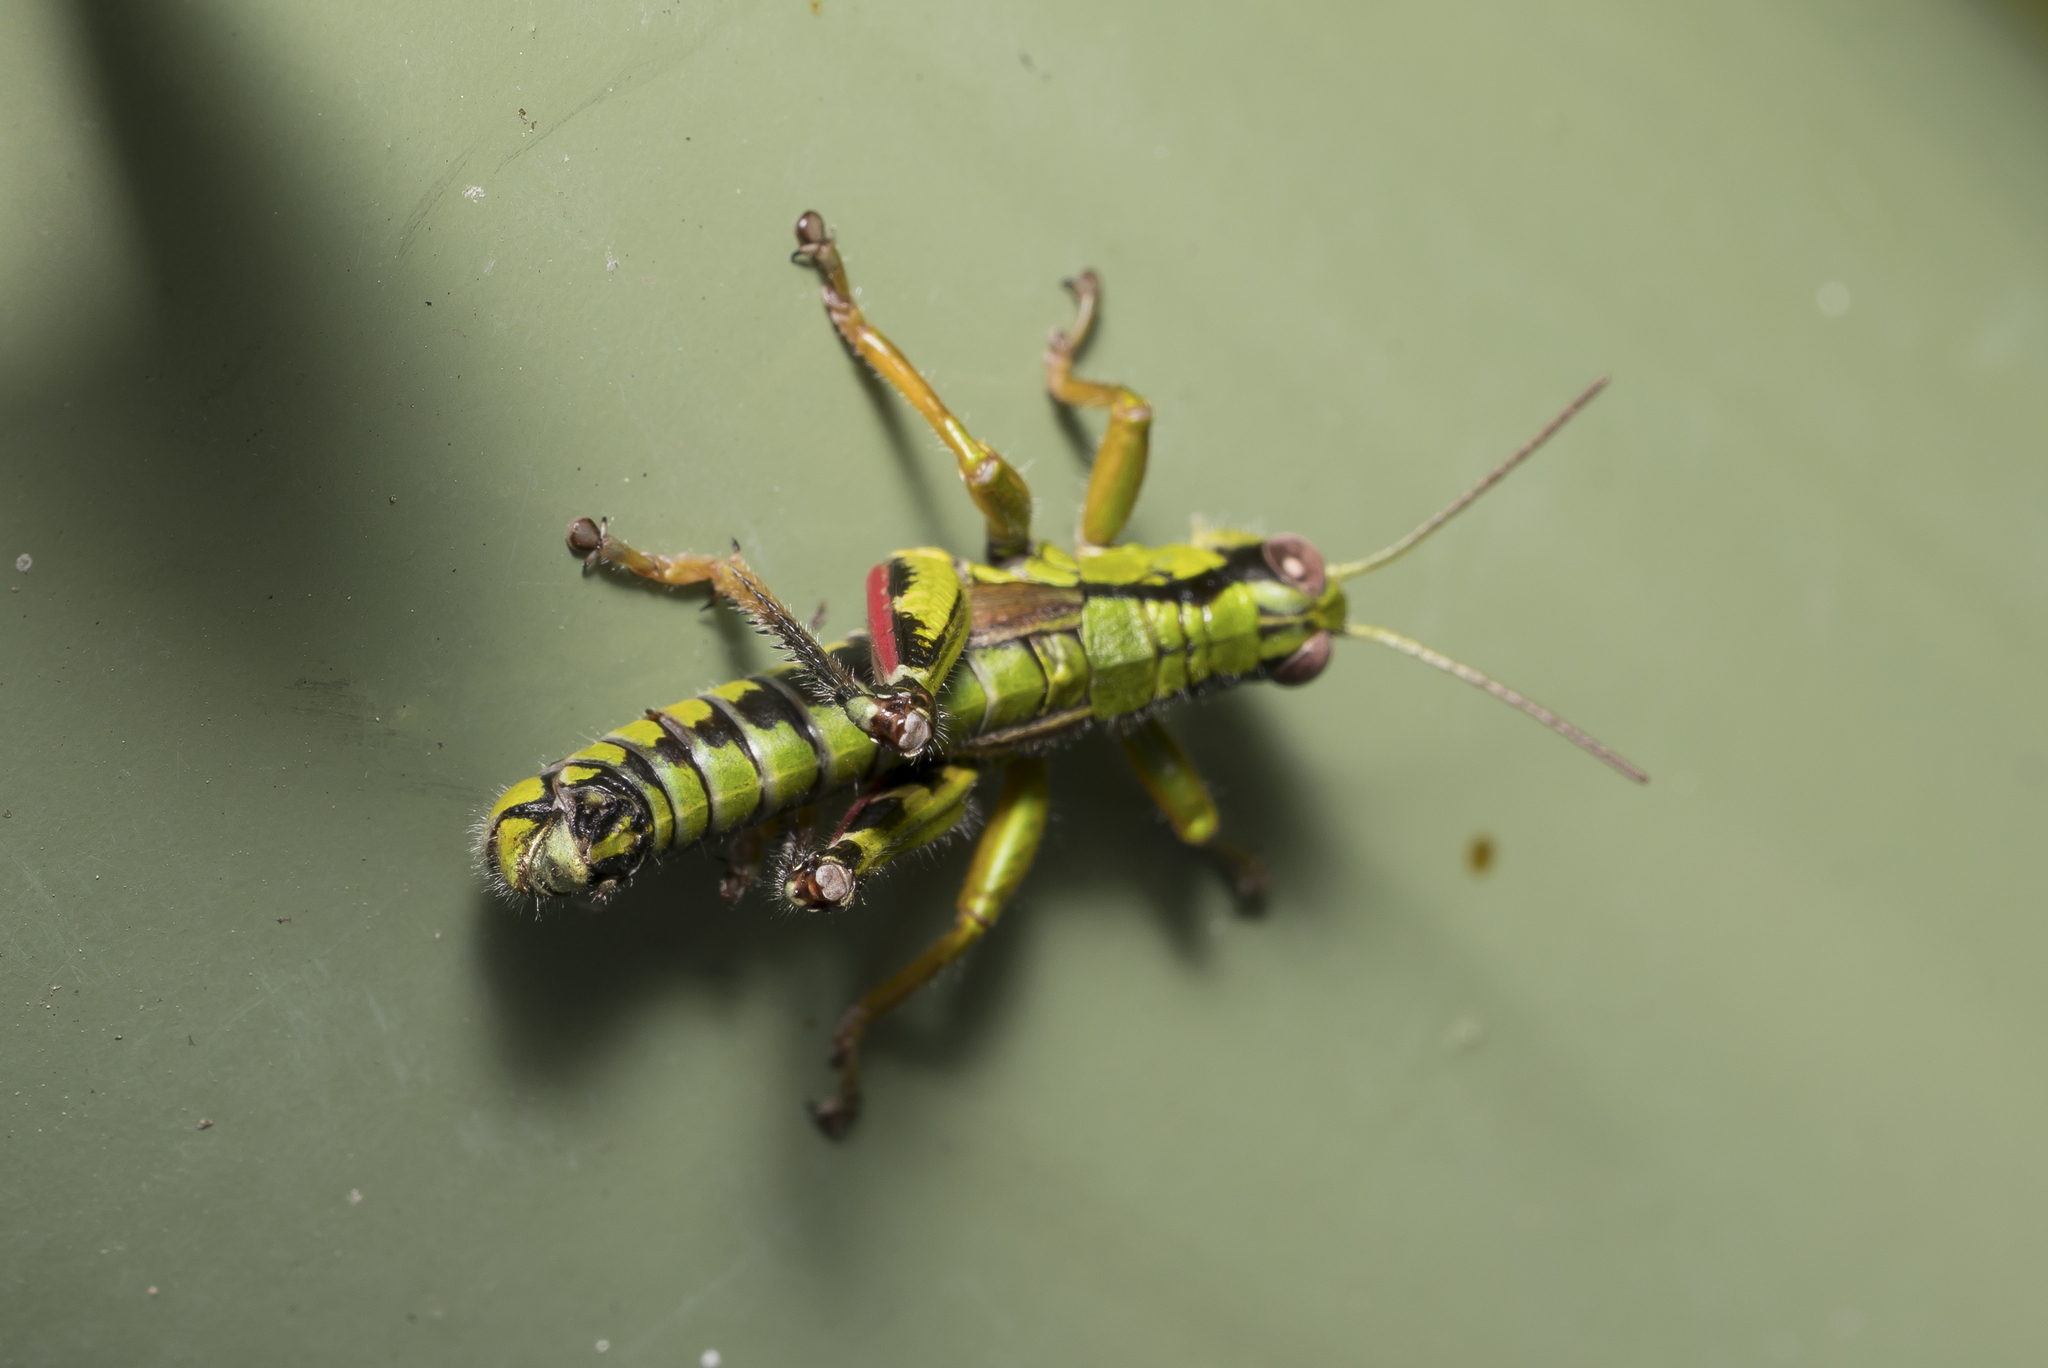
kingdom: Animalia
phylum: Arthropoda
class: Insecta
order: Orthoptera
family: Acrididae
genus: Miramella
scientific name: Miramella alpina
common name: Green mountain grasshopper
